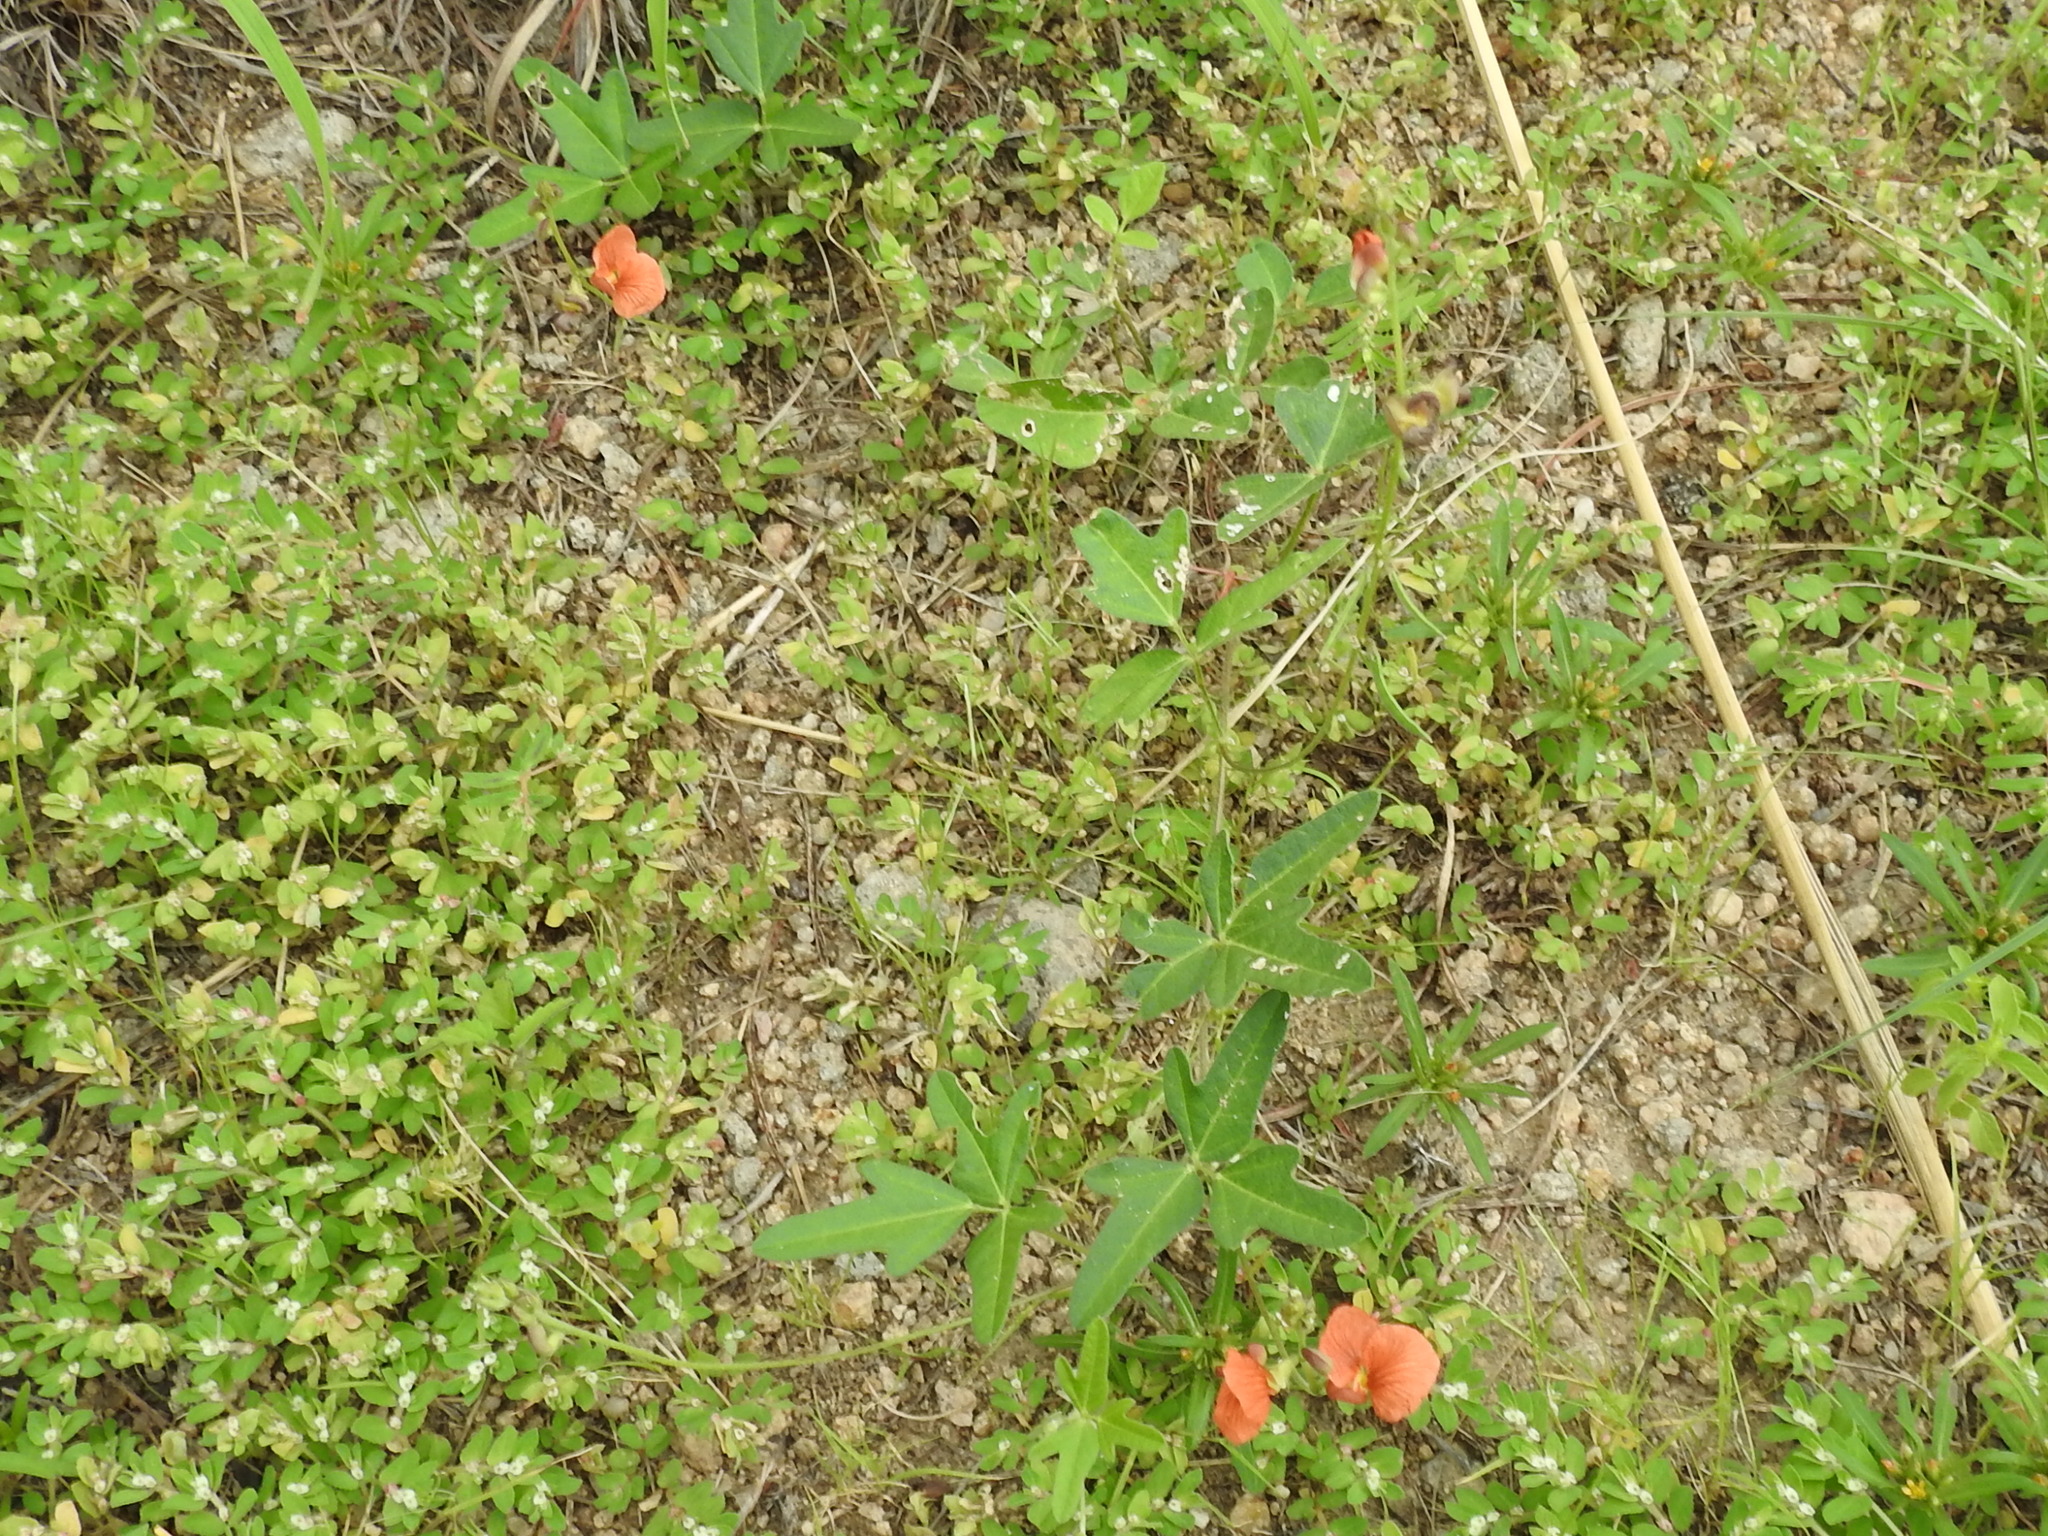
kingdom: Plantae
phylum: Tracheophyta
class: Magnoliopsida
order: Fabales
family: Fabaceae
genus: Macroptilium
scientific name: Macroptilium gibbosifolium
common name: Variableleaf bushbean
